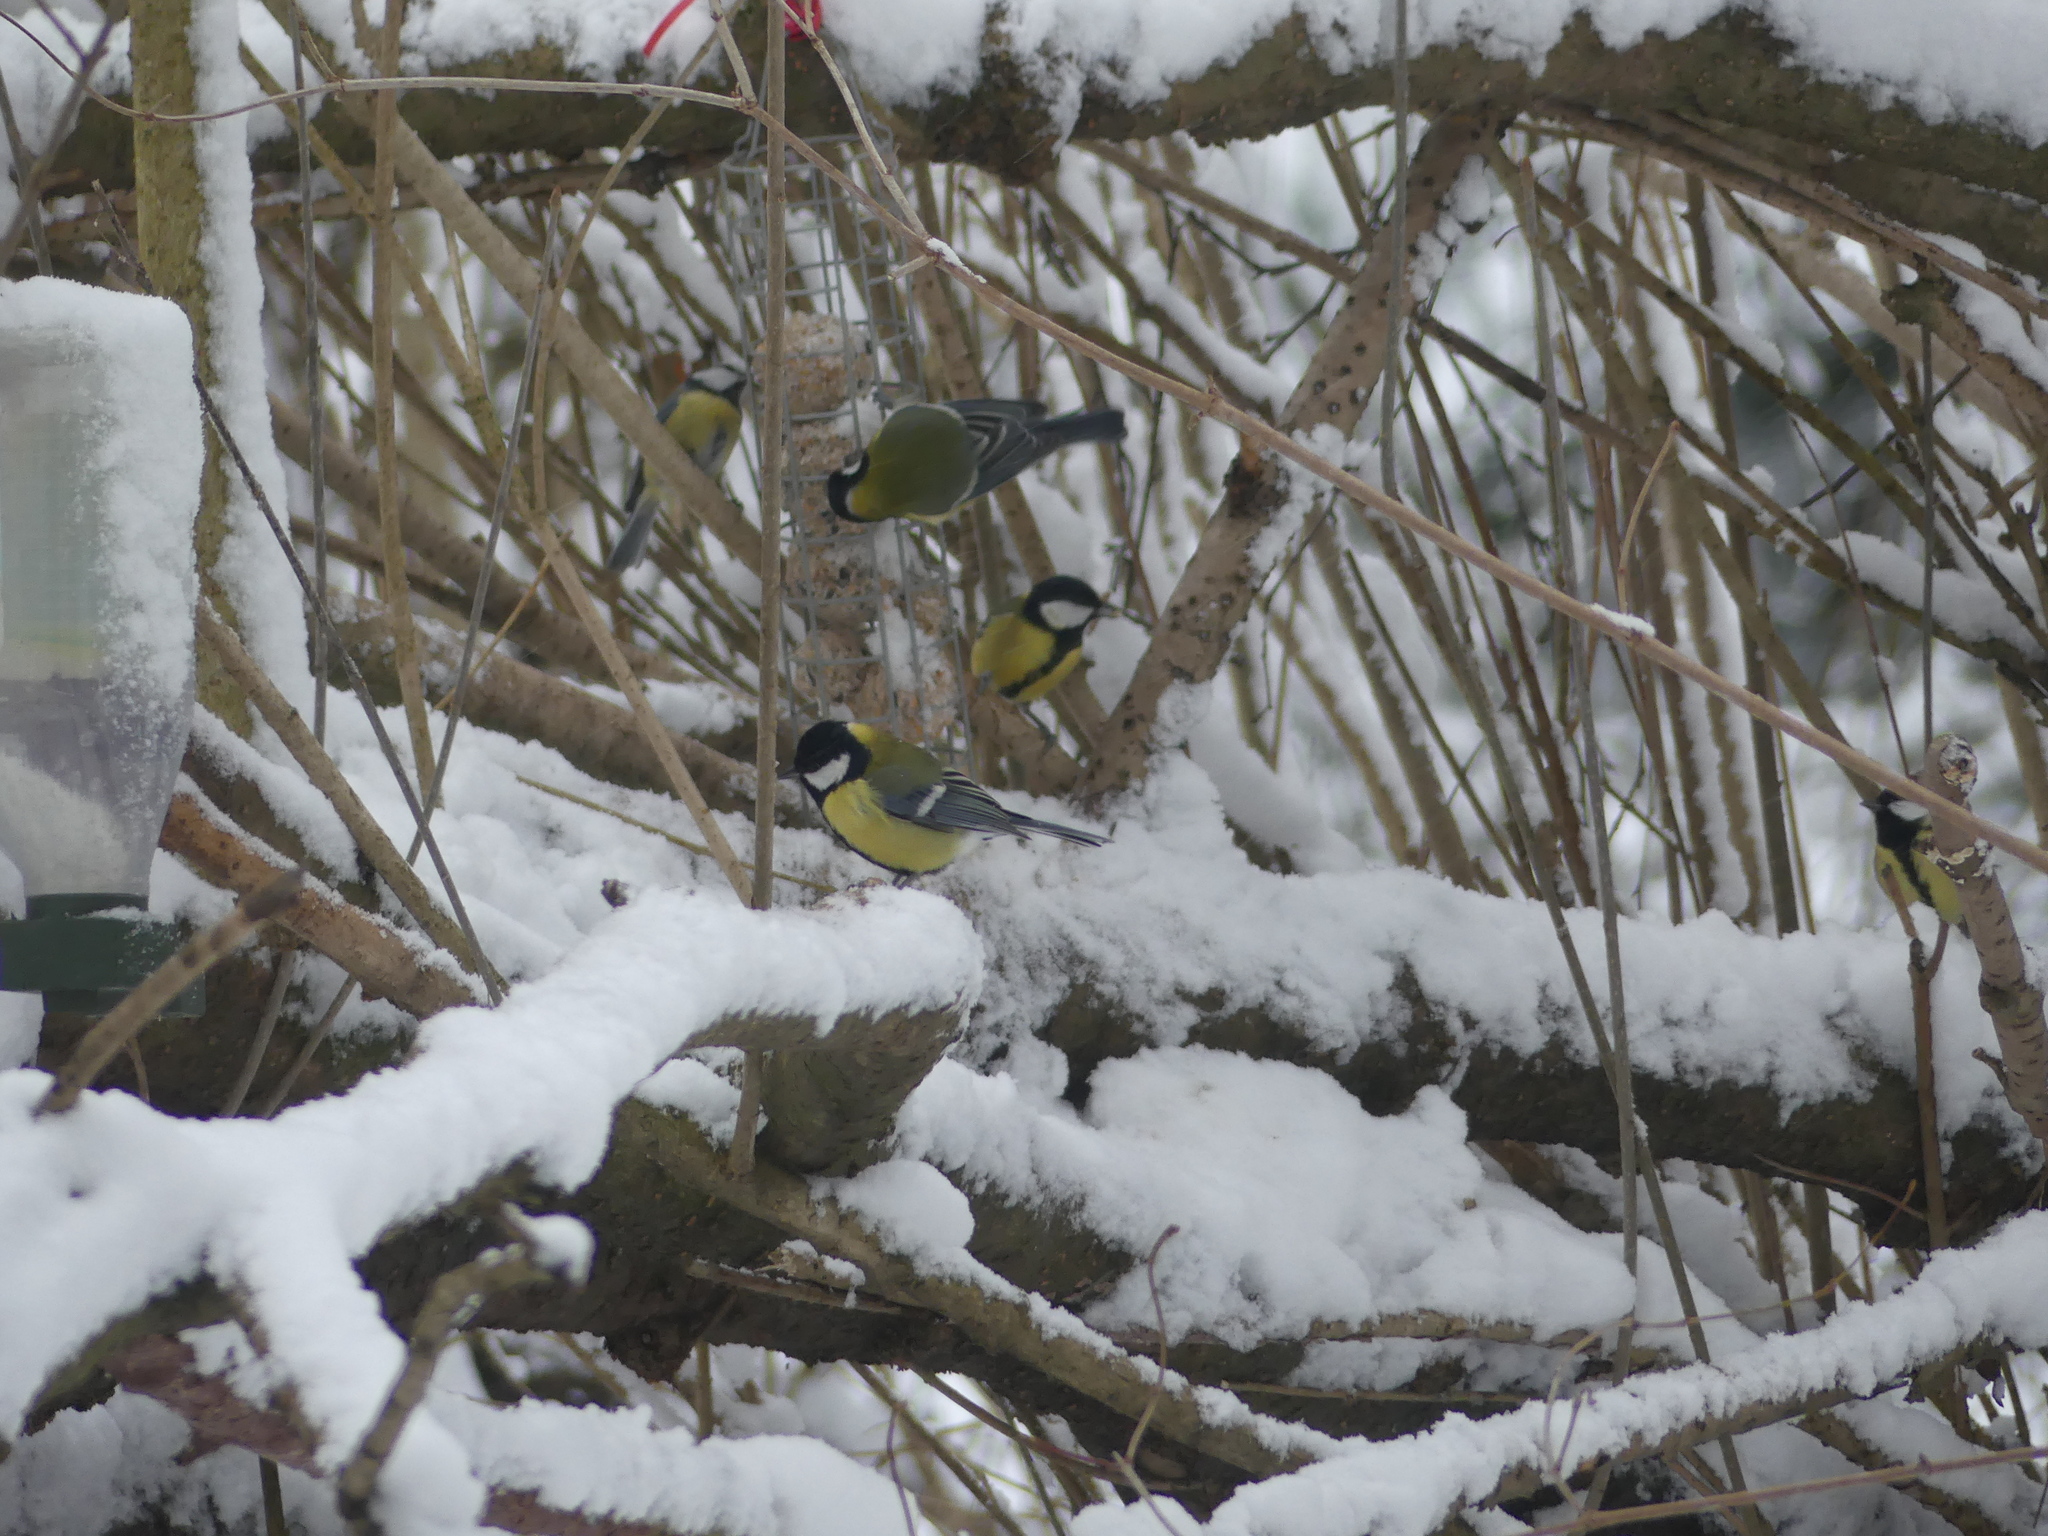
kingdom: Animalia
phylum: Chordata
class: Aves
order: Passeriformes
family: Paridae
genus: Parus
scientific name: Parus major
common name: Great tit
